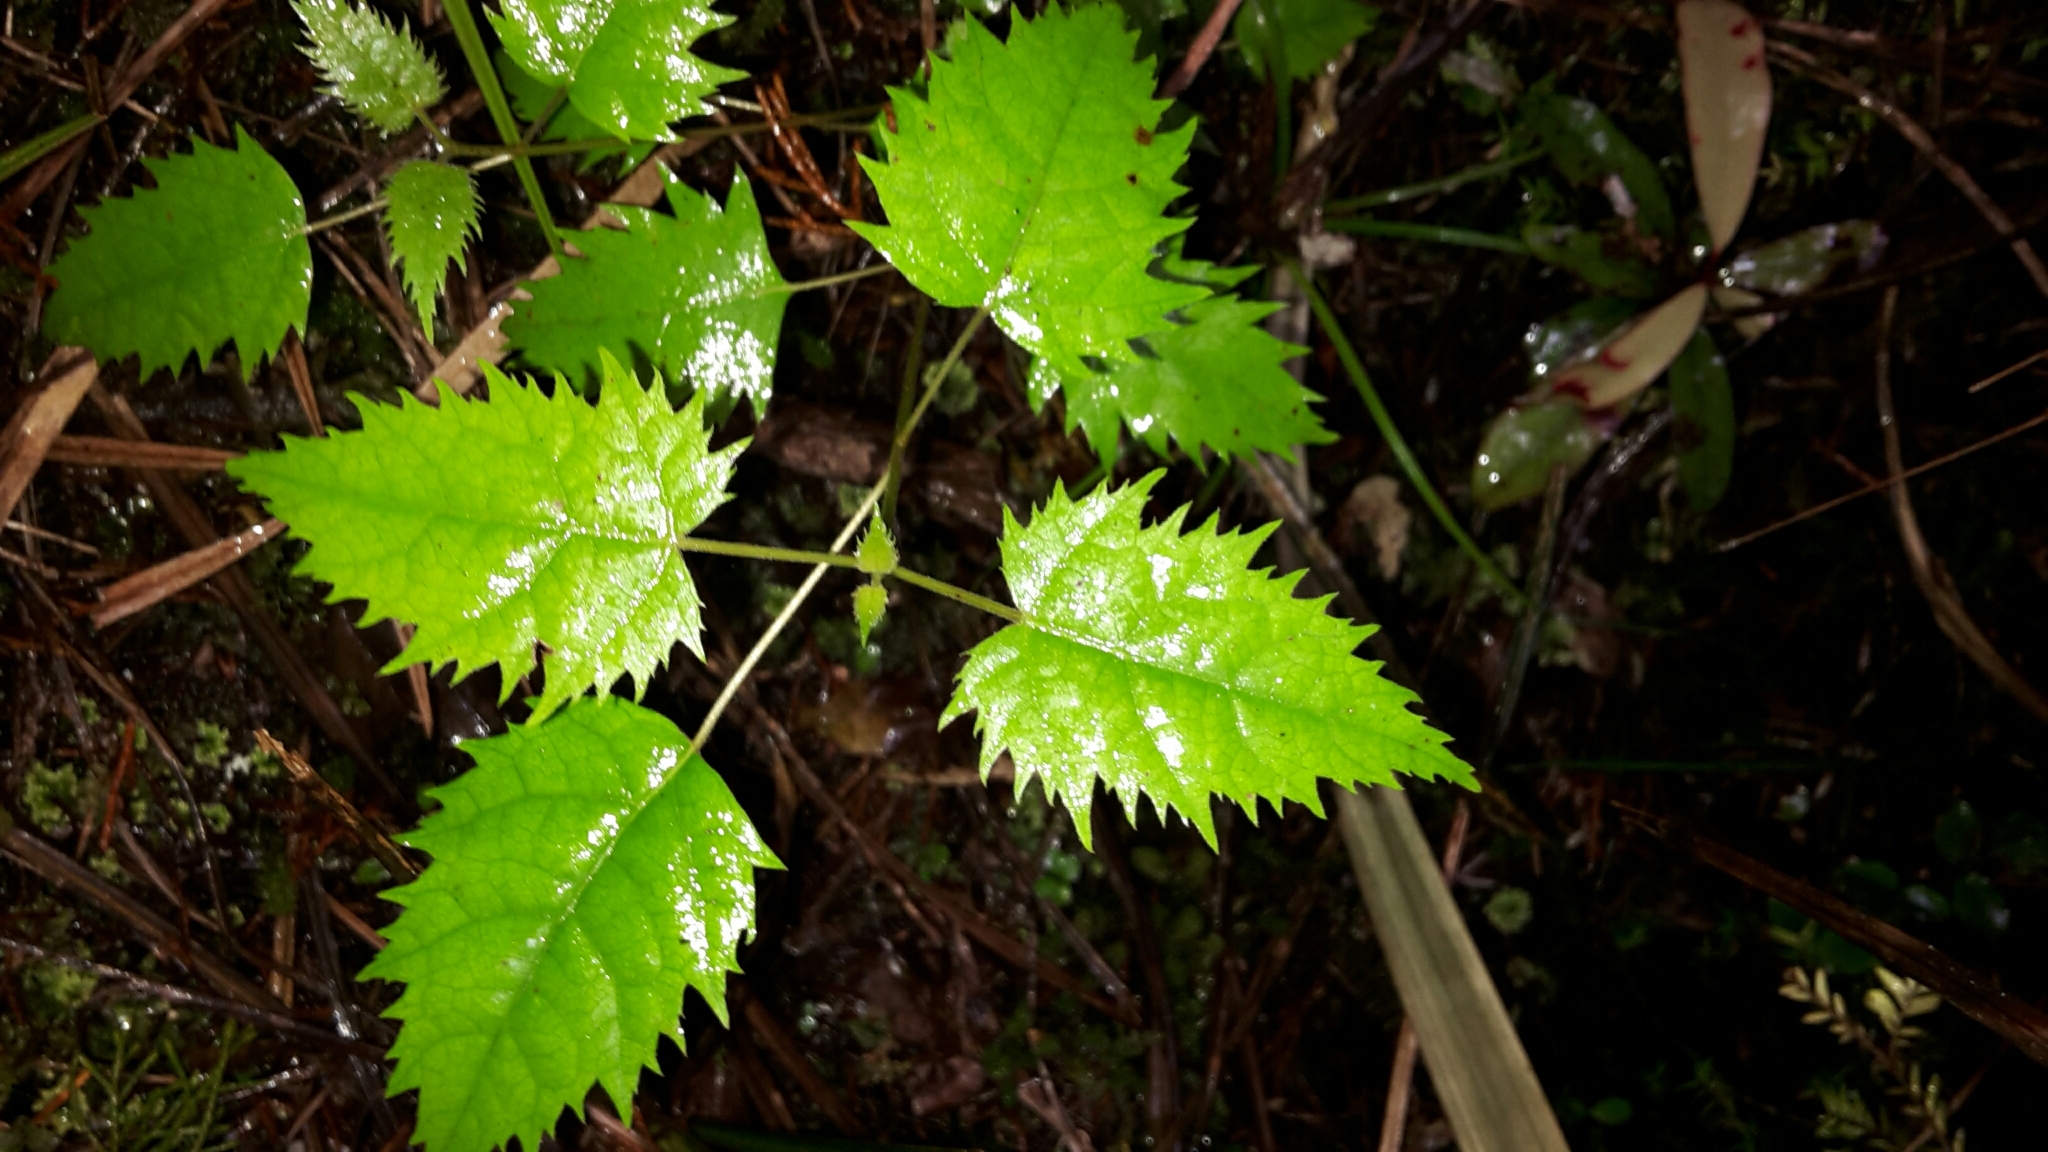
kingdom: Plantae
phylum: Tracheophyta
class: Magnoliopsida
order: Oxalidales
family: Elaeocarpaceae
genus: Aristotelia
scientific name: Aristotelia serrata
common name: New zealand wineberry
